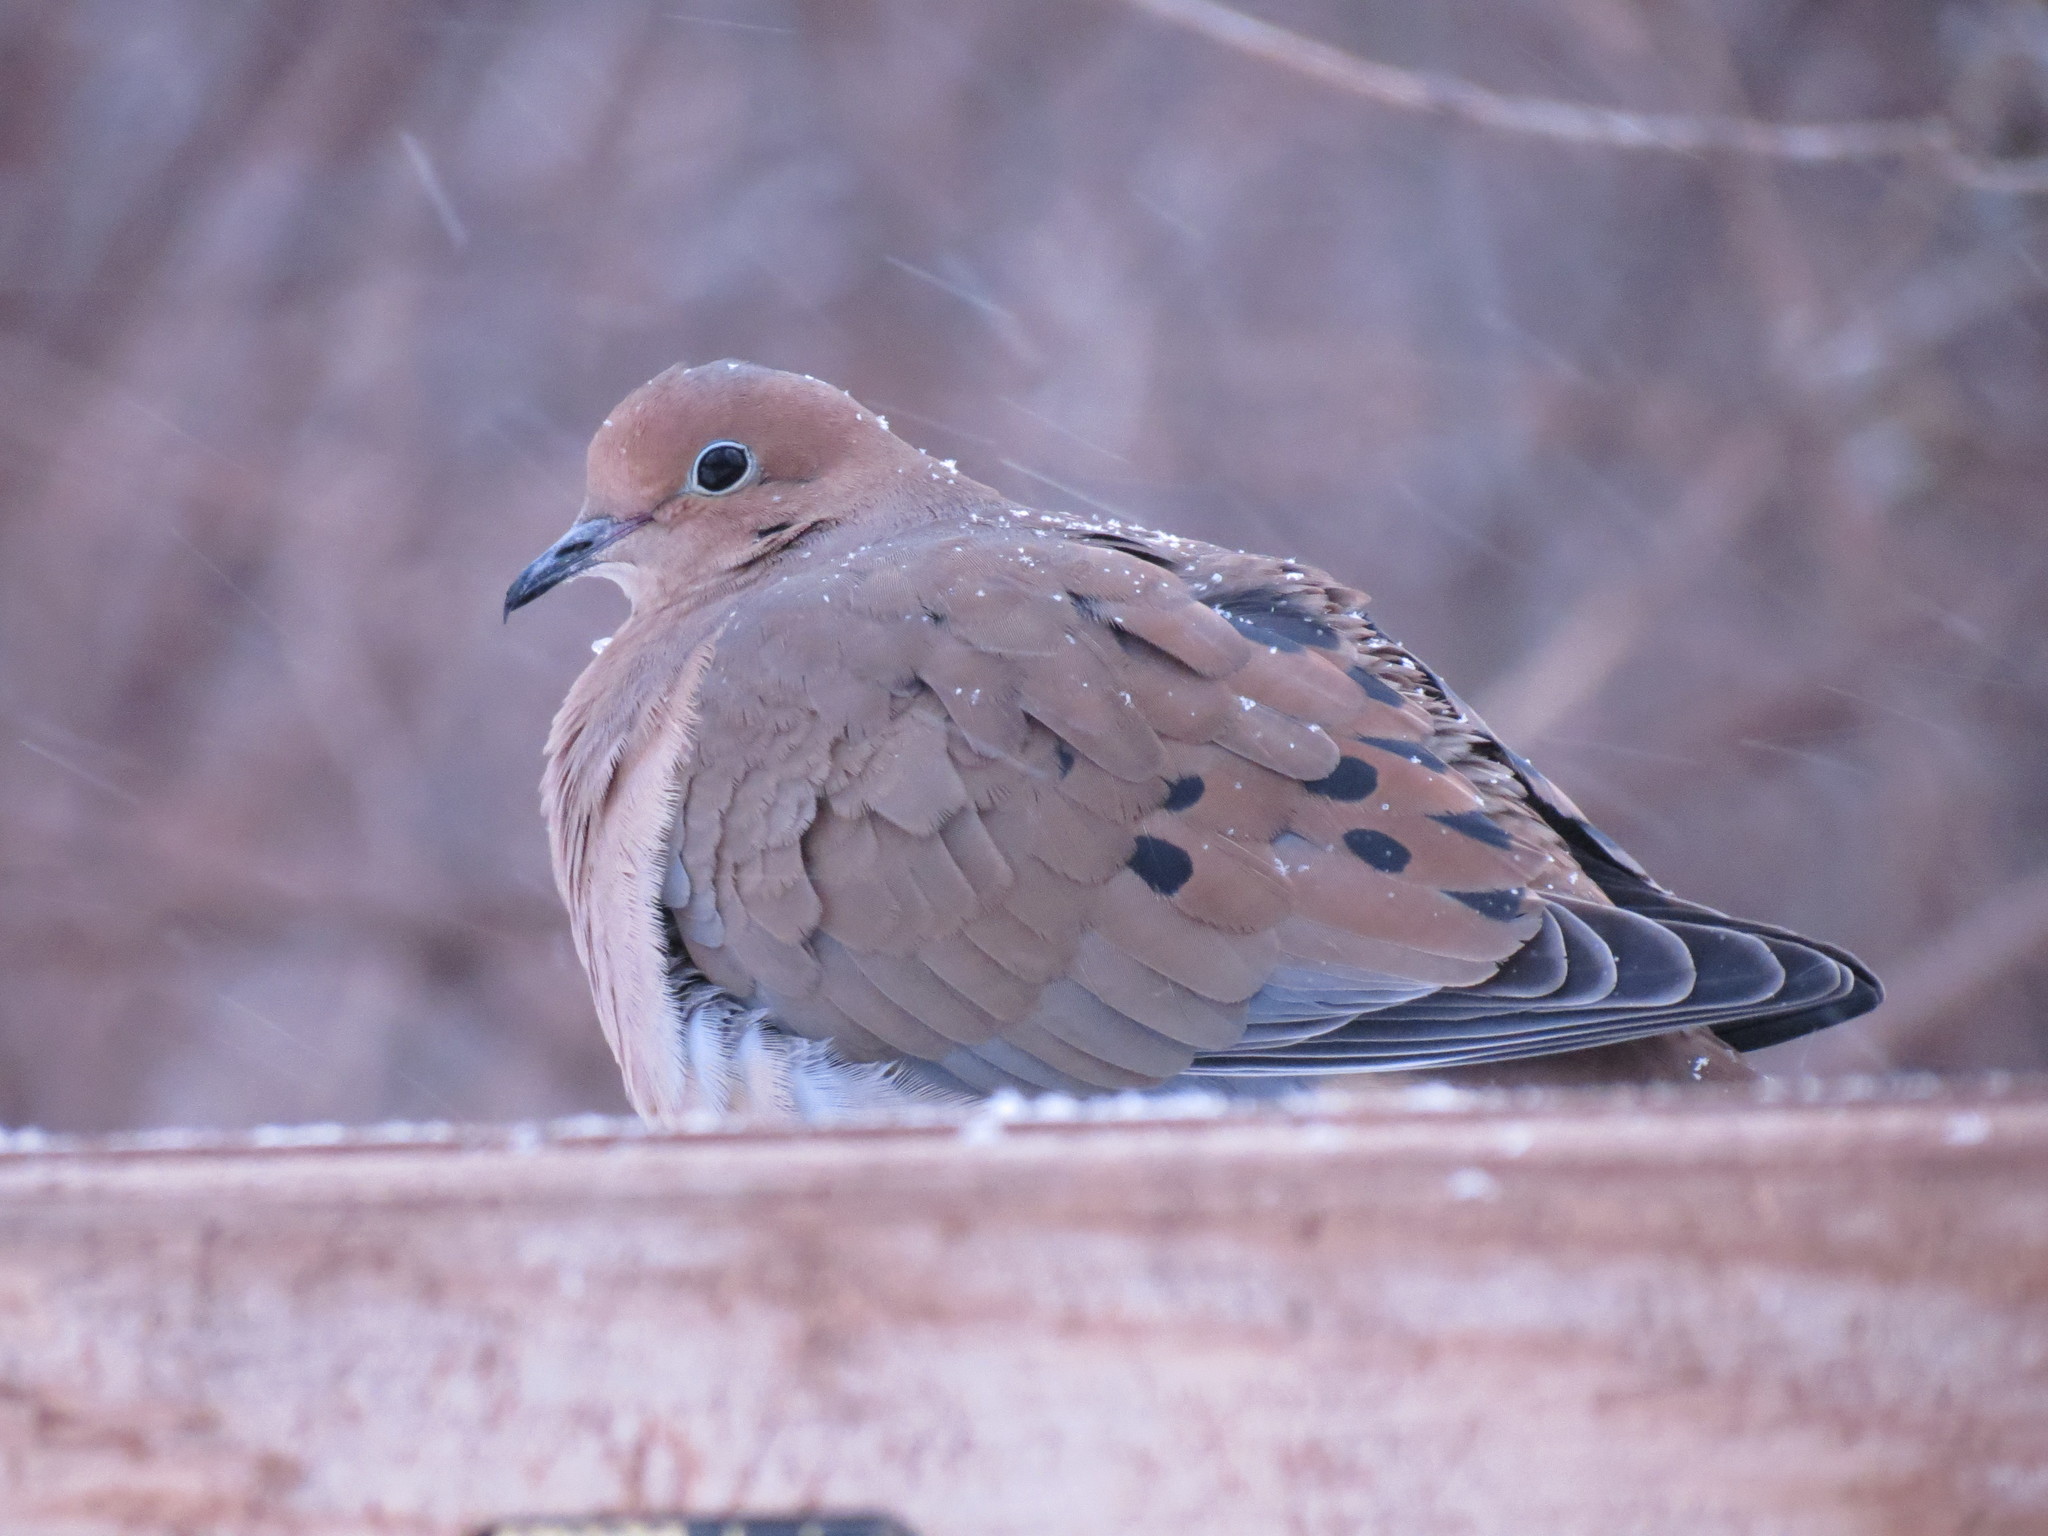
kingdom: Animalia
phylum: Chordata
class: Aves
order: Columbiformes
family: Columbidae
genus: Zenaida
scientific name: Zenaida macroura
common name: Mourning dove
